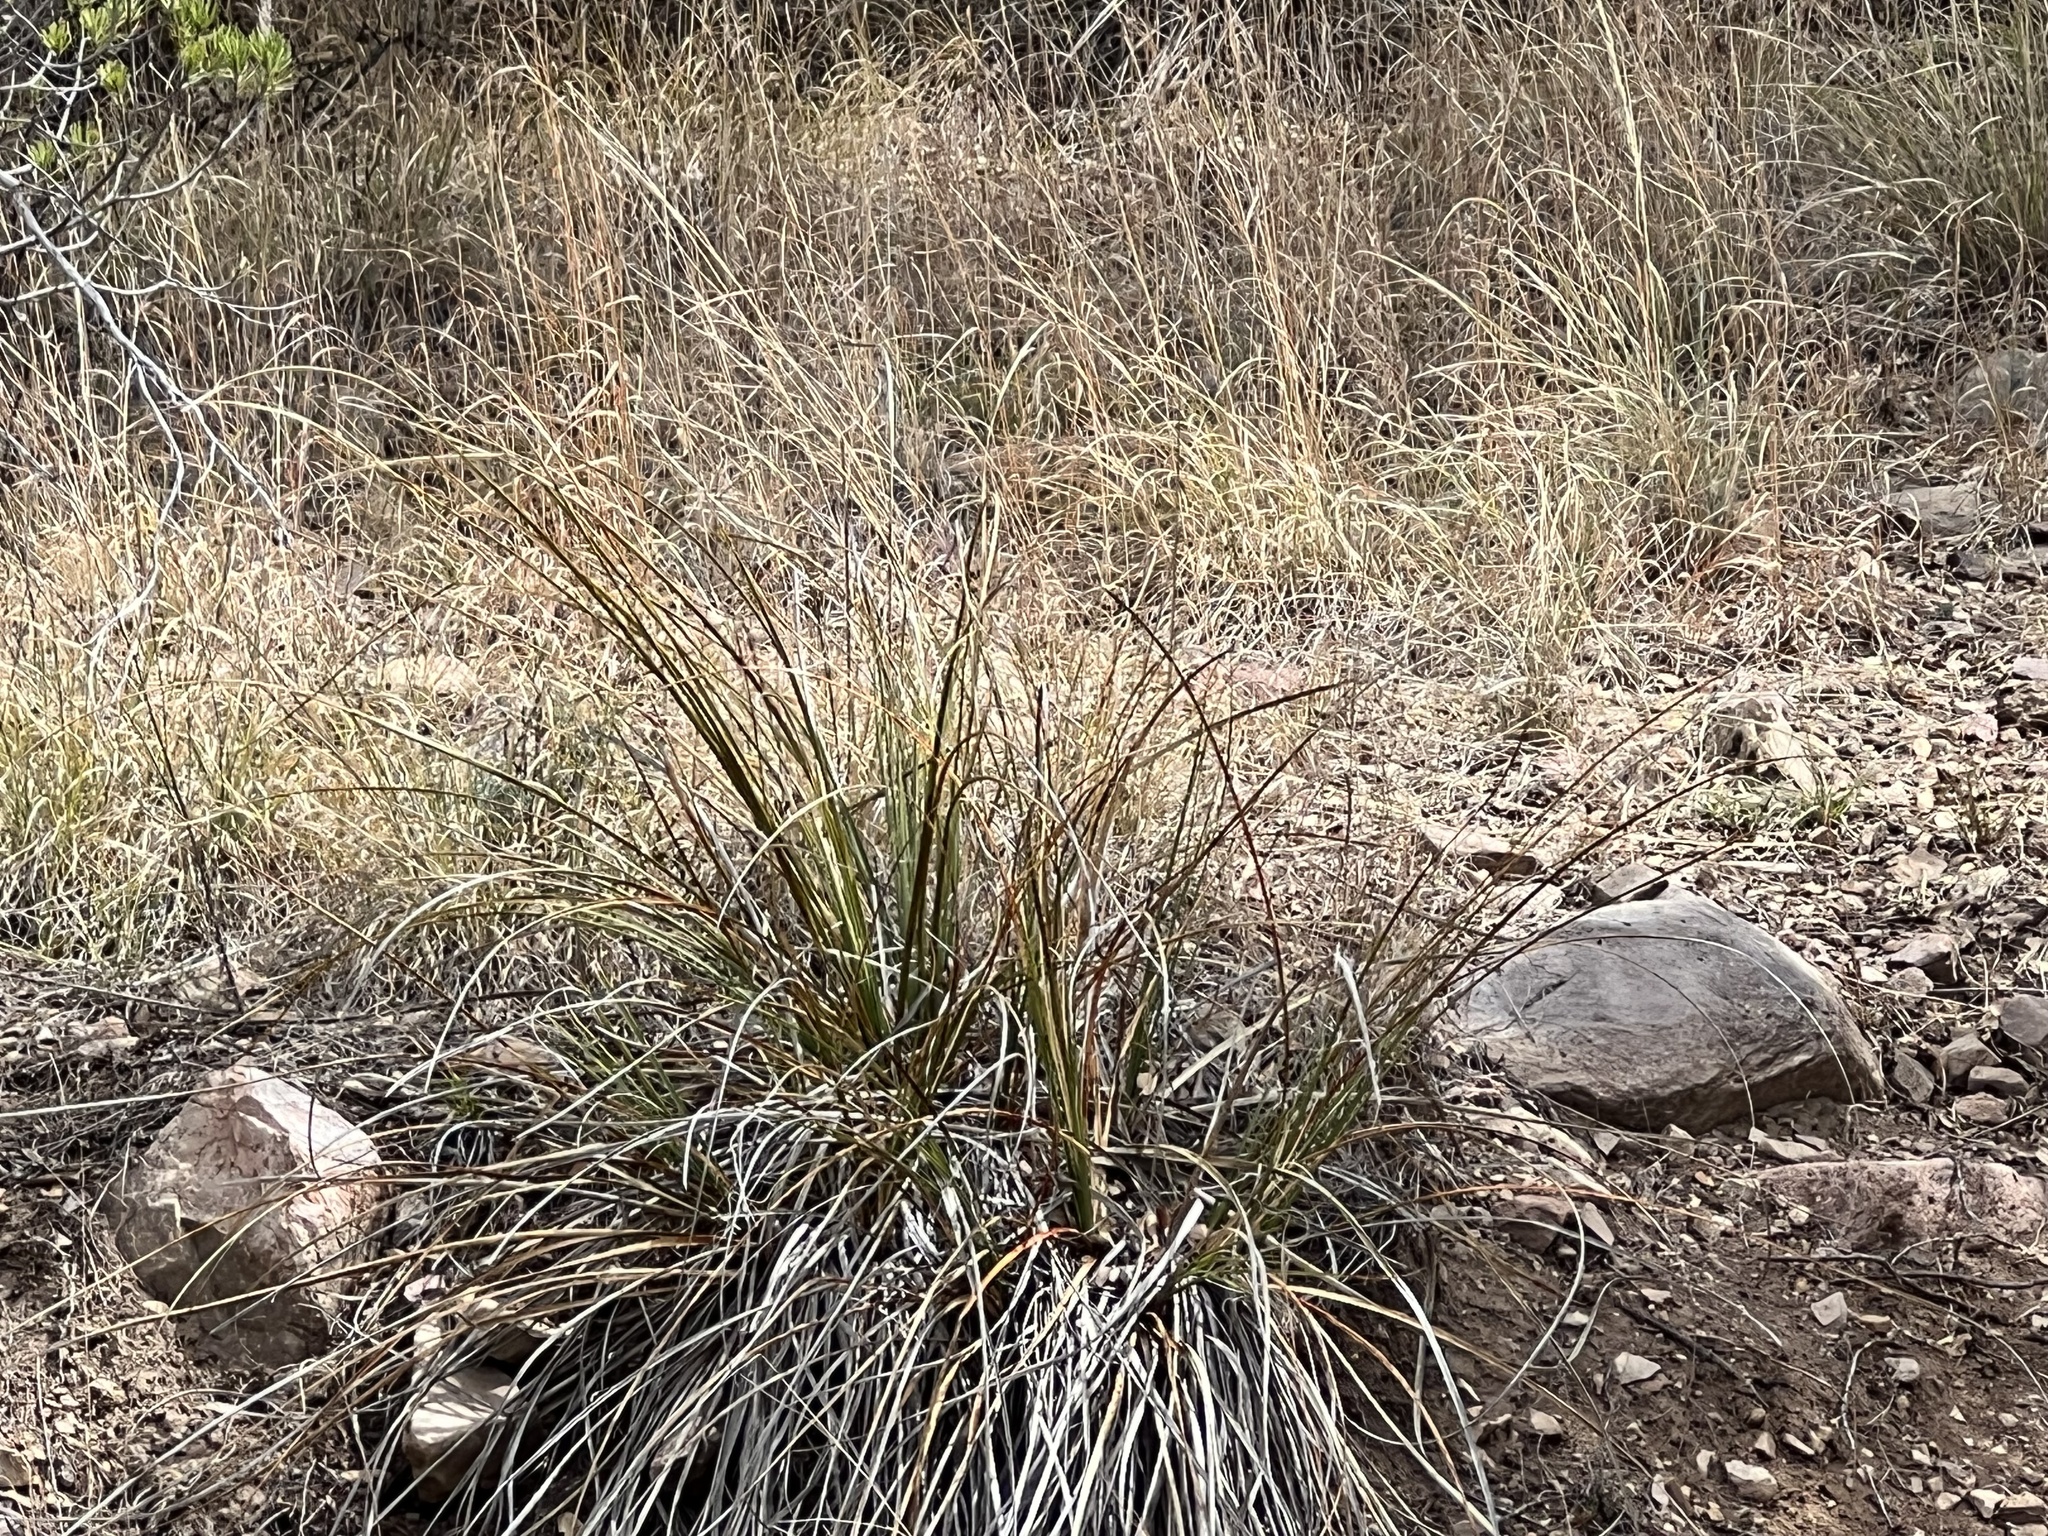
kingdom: Plantae
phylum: Tracheophyta
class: Liliopsida
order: Asparagales
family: Asparagaceae
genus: Nolina
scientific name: Nolina microcarpa
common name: Bear-grass
